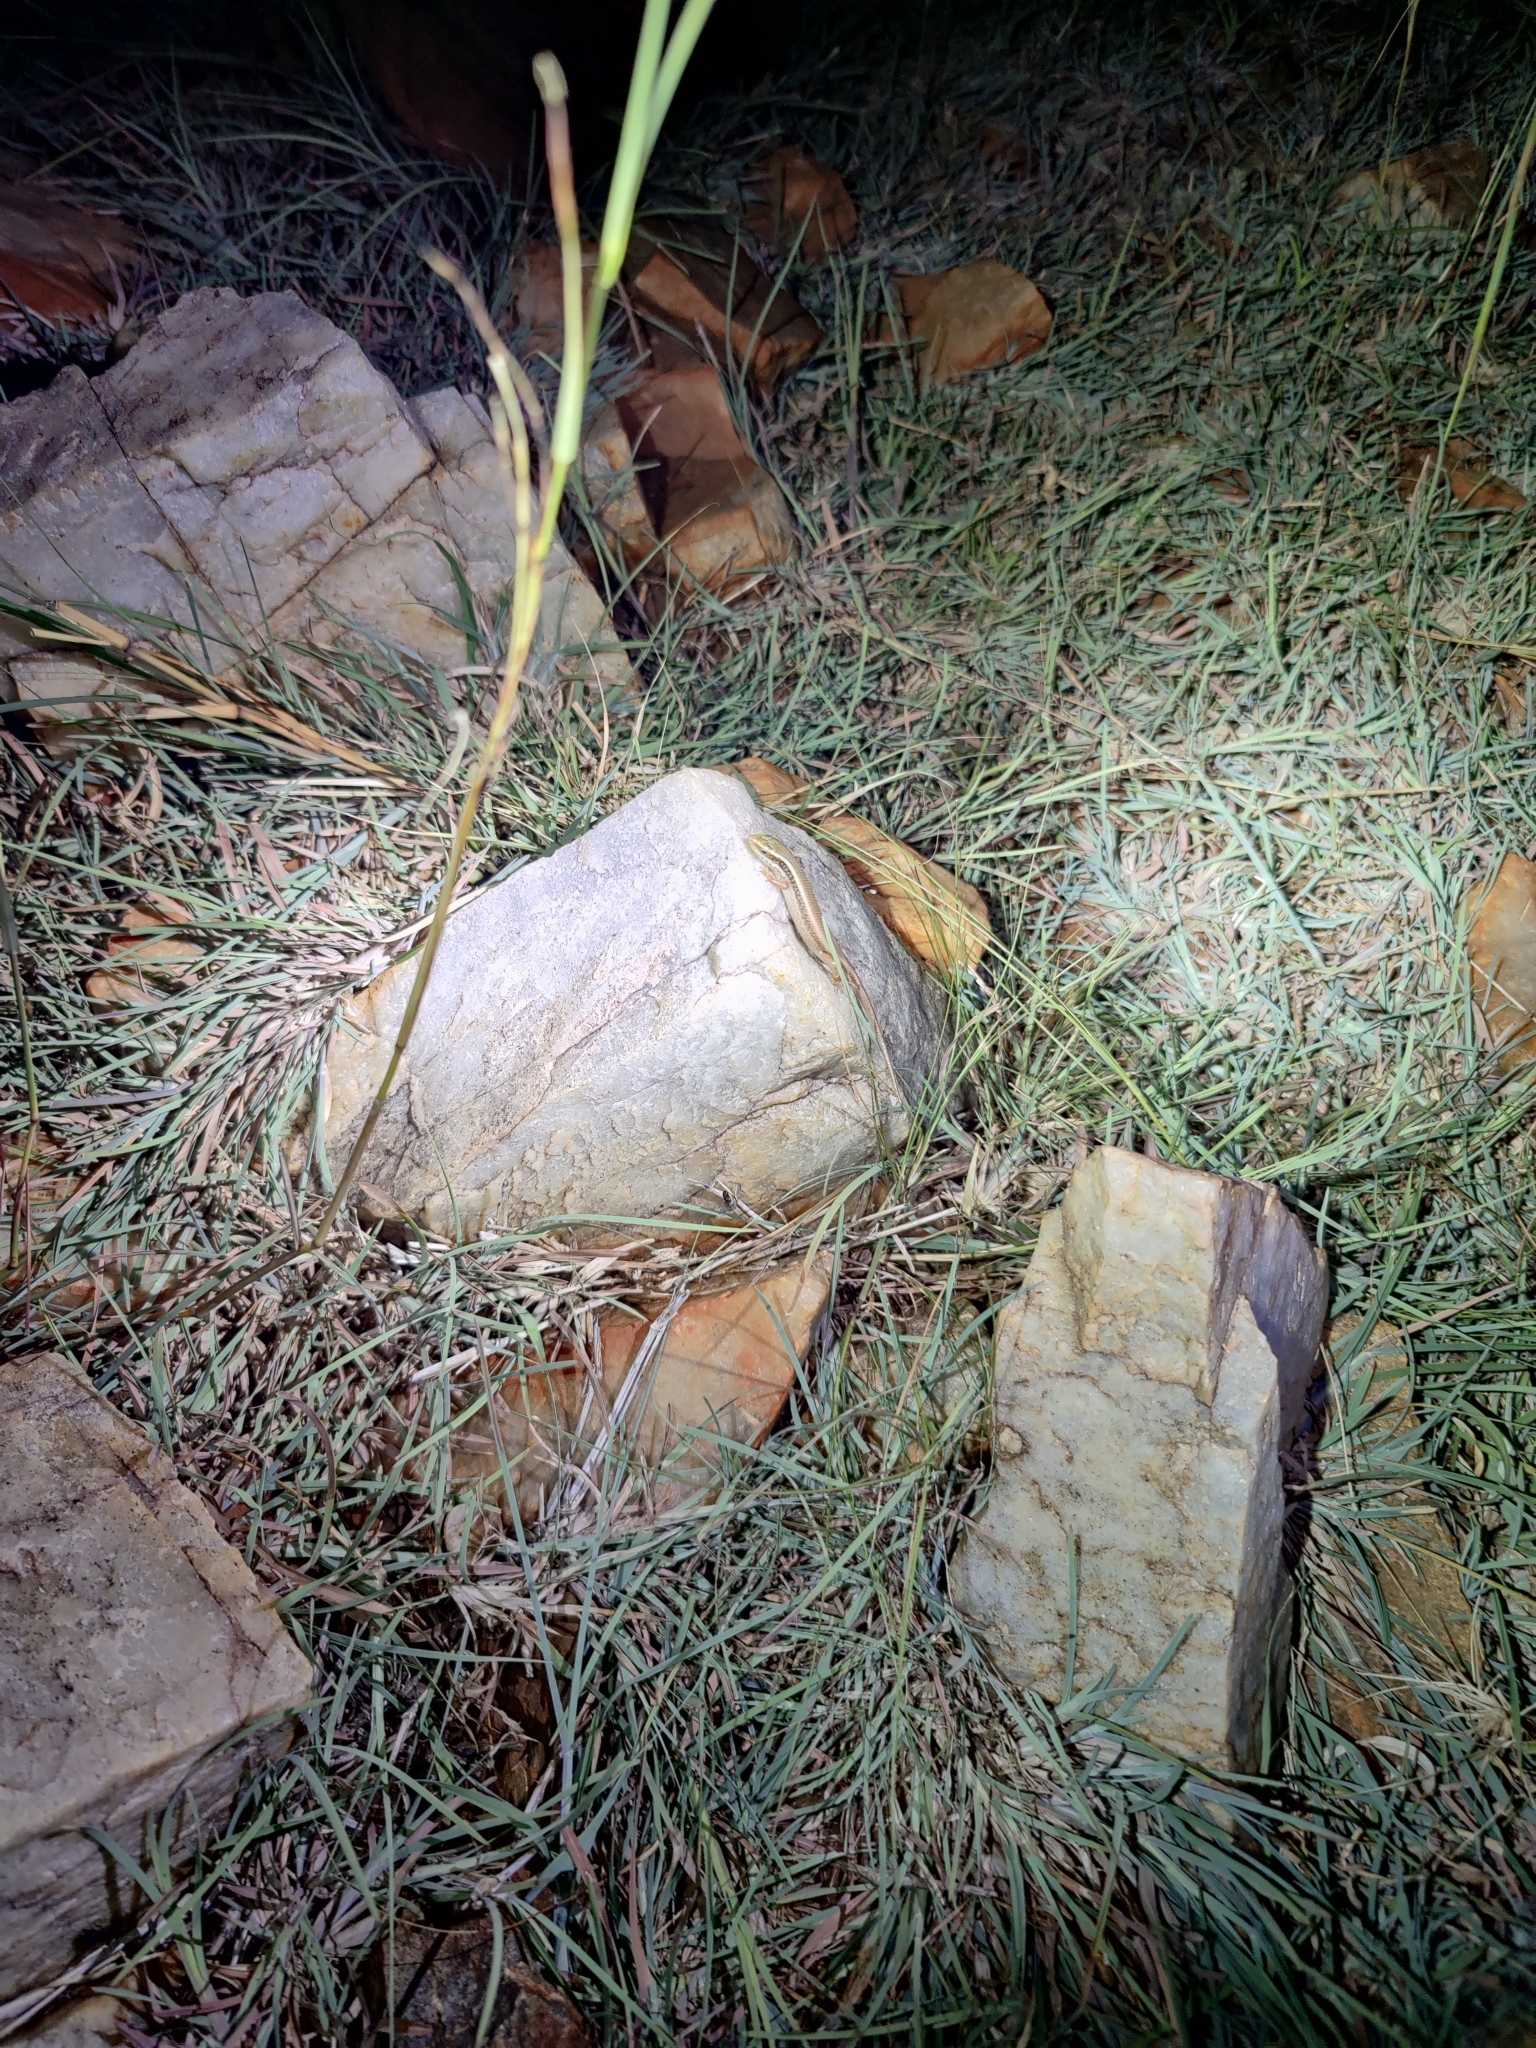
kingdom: Animalia
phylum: Chordata
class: Squamata
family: Scincidae
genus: Eutropis
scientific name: Eutropis carinata
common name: Keeled indian mabuya
